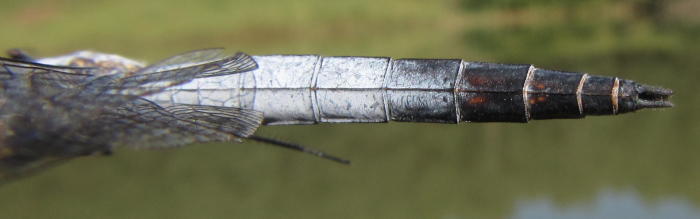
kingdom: Animalia
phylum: Arthropoda
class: Insecta
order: Odonata
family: Libellulidae
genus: Nesciothemis
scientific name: Nesciothemis farinosa
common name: Eastern blacktail
